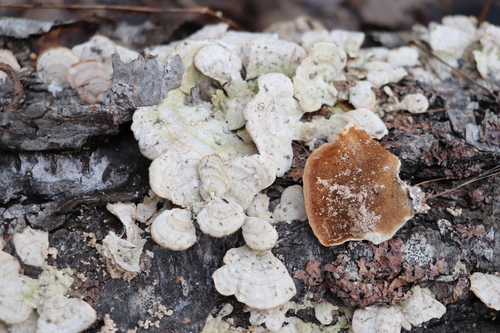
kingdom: Fungi
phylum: Basidiomycota
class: Agaricomycetes
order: Hymenochaetales
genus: Trichaptum
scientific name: Trichaptum biforme
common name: Violet-toothed polypore
